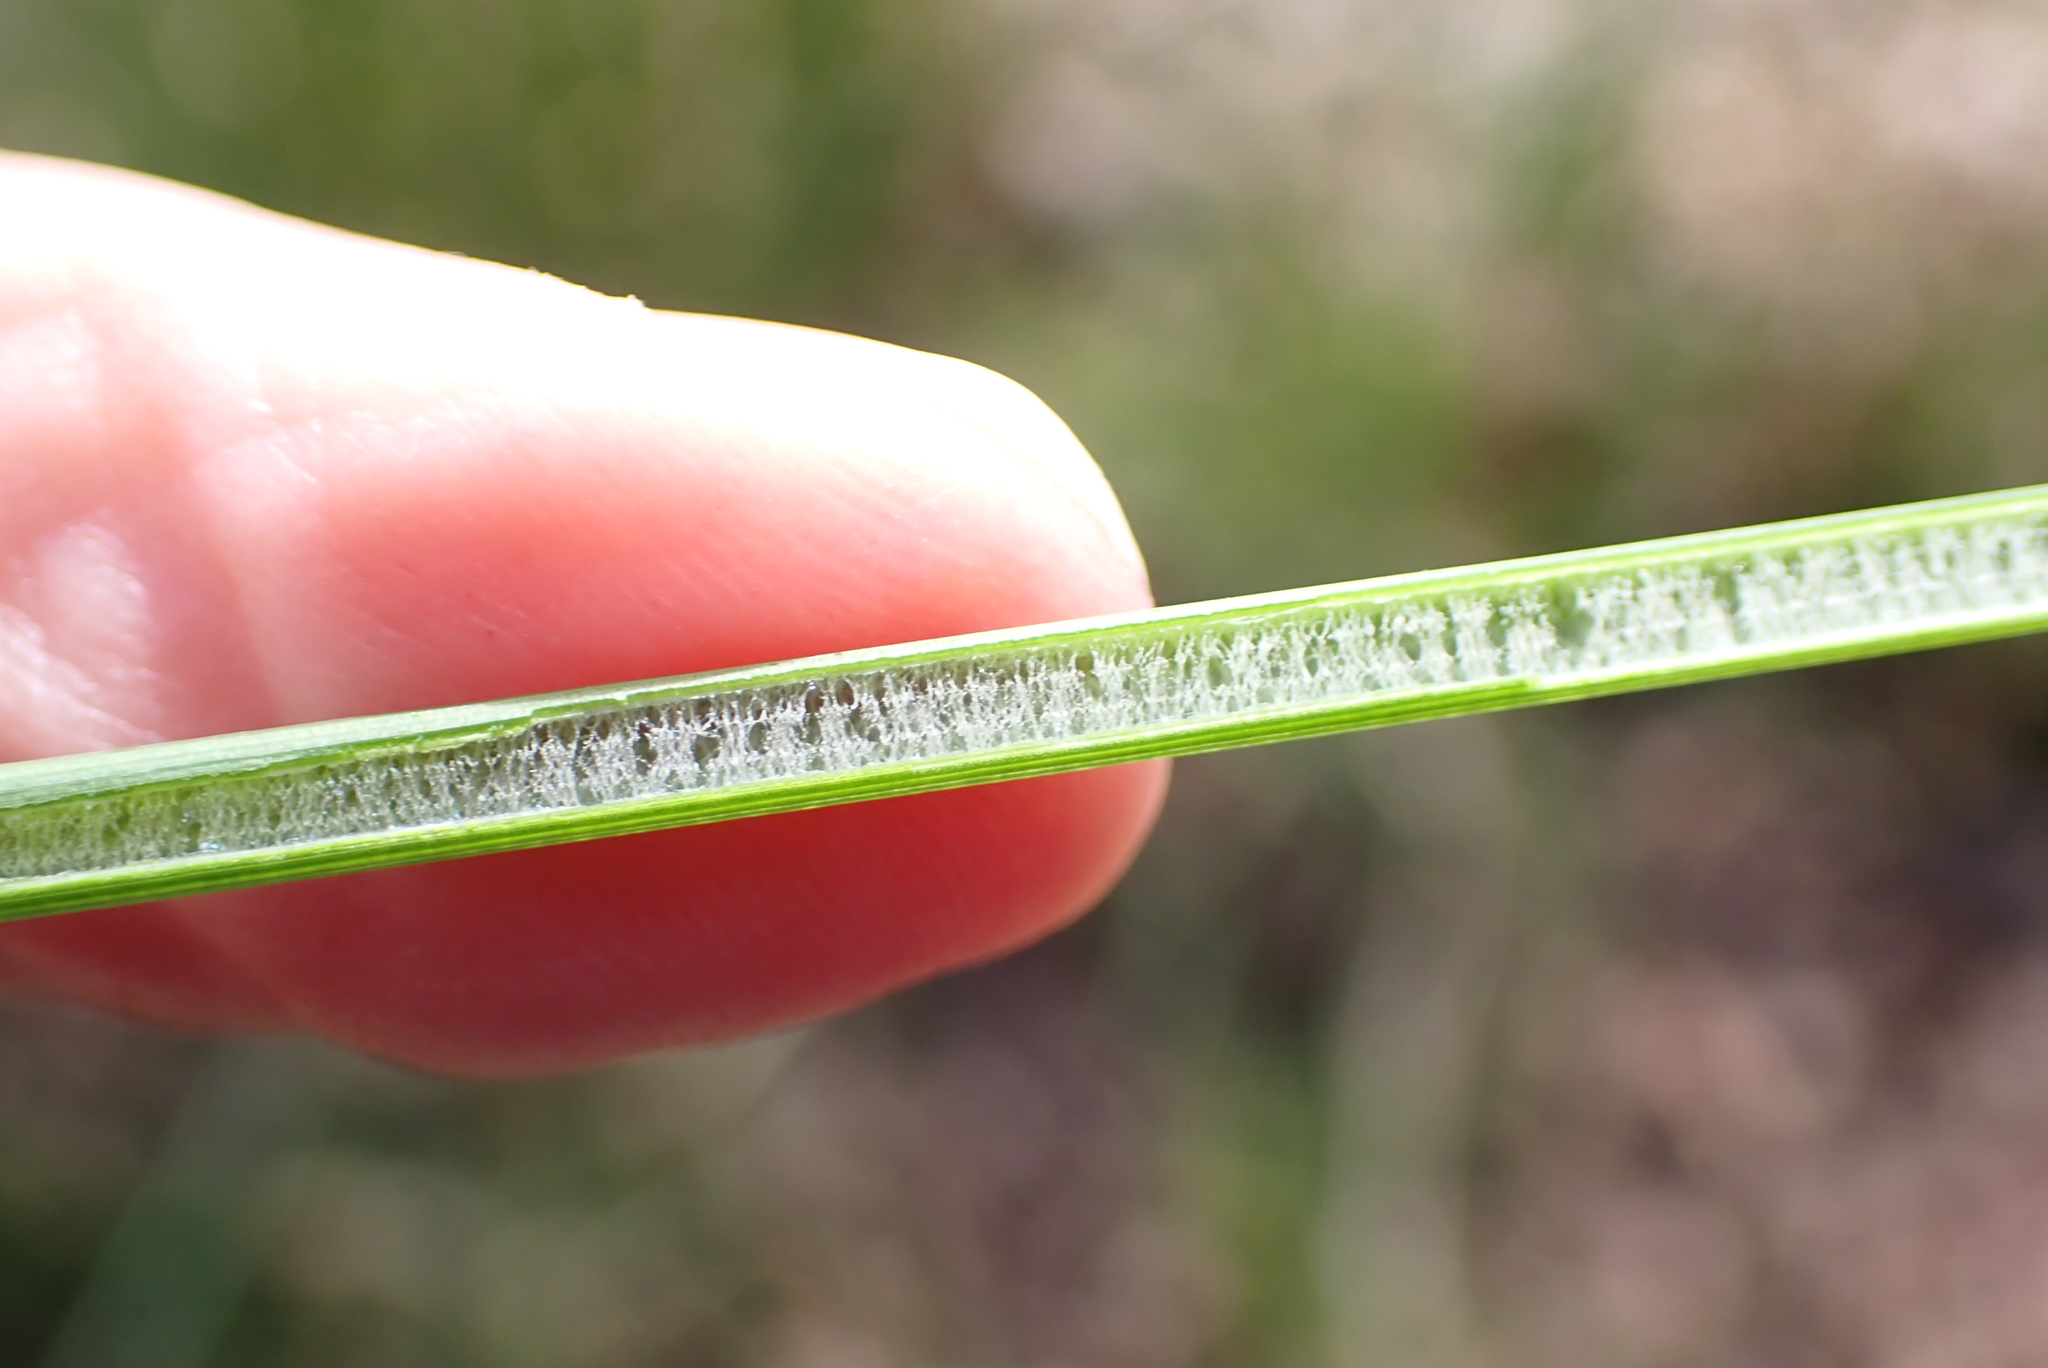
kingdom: Plantae
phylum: Tracheophyta
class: Liliopsida
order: Poales
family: Juncaceae
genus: Juncus
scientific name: Juncus inflexus
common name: Hard rush
